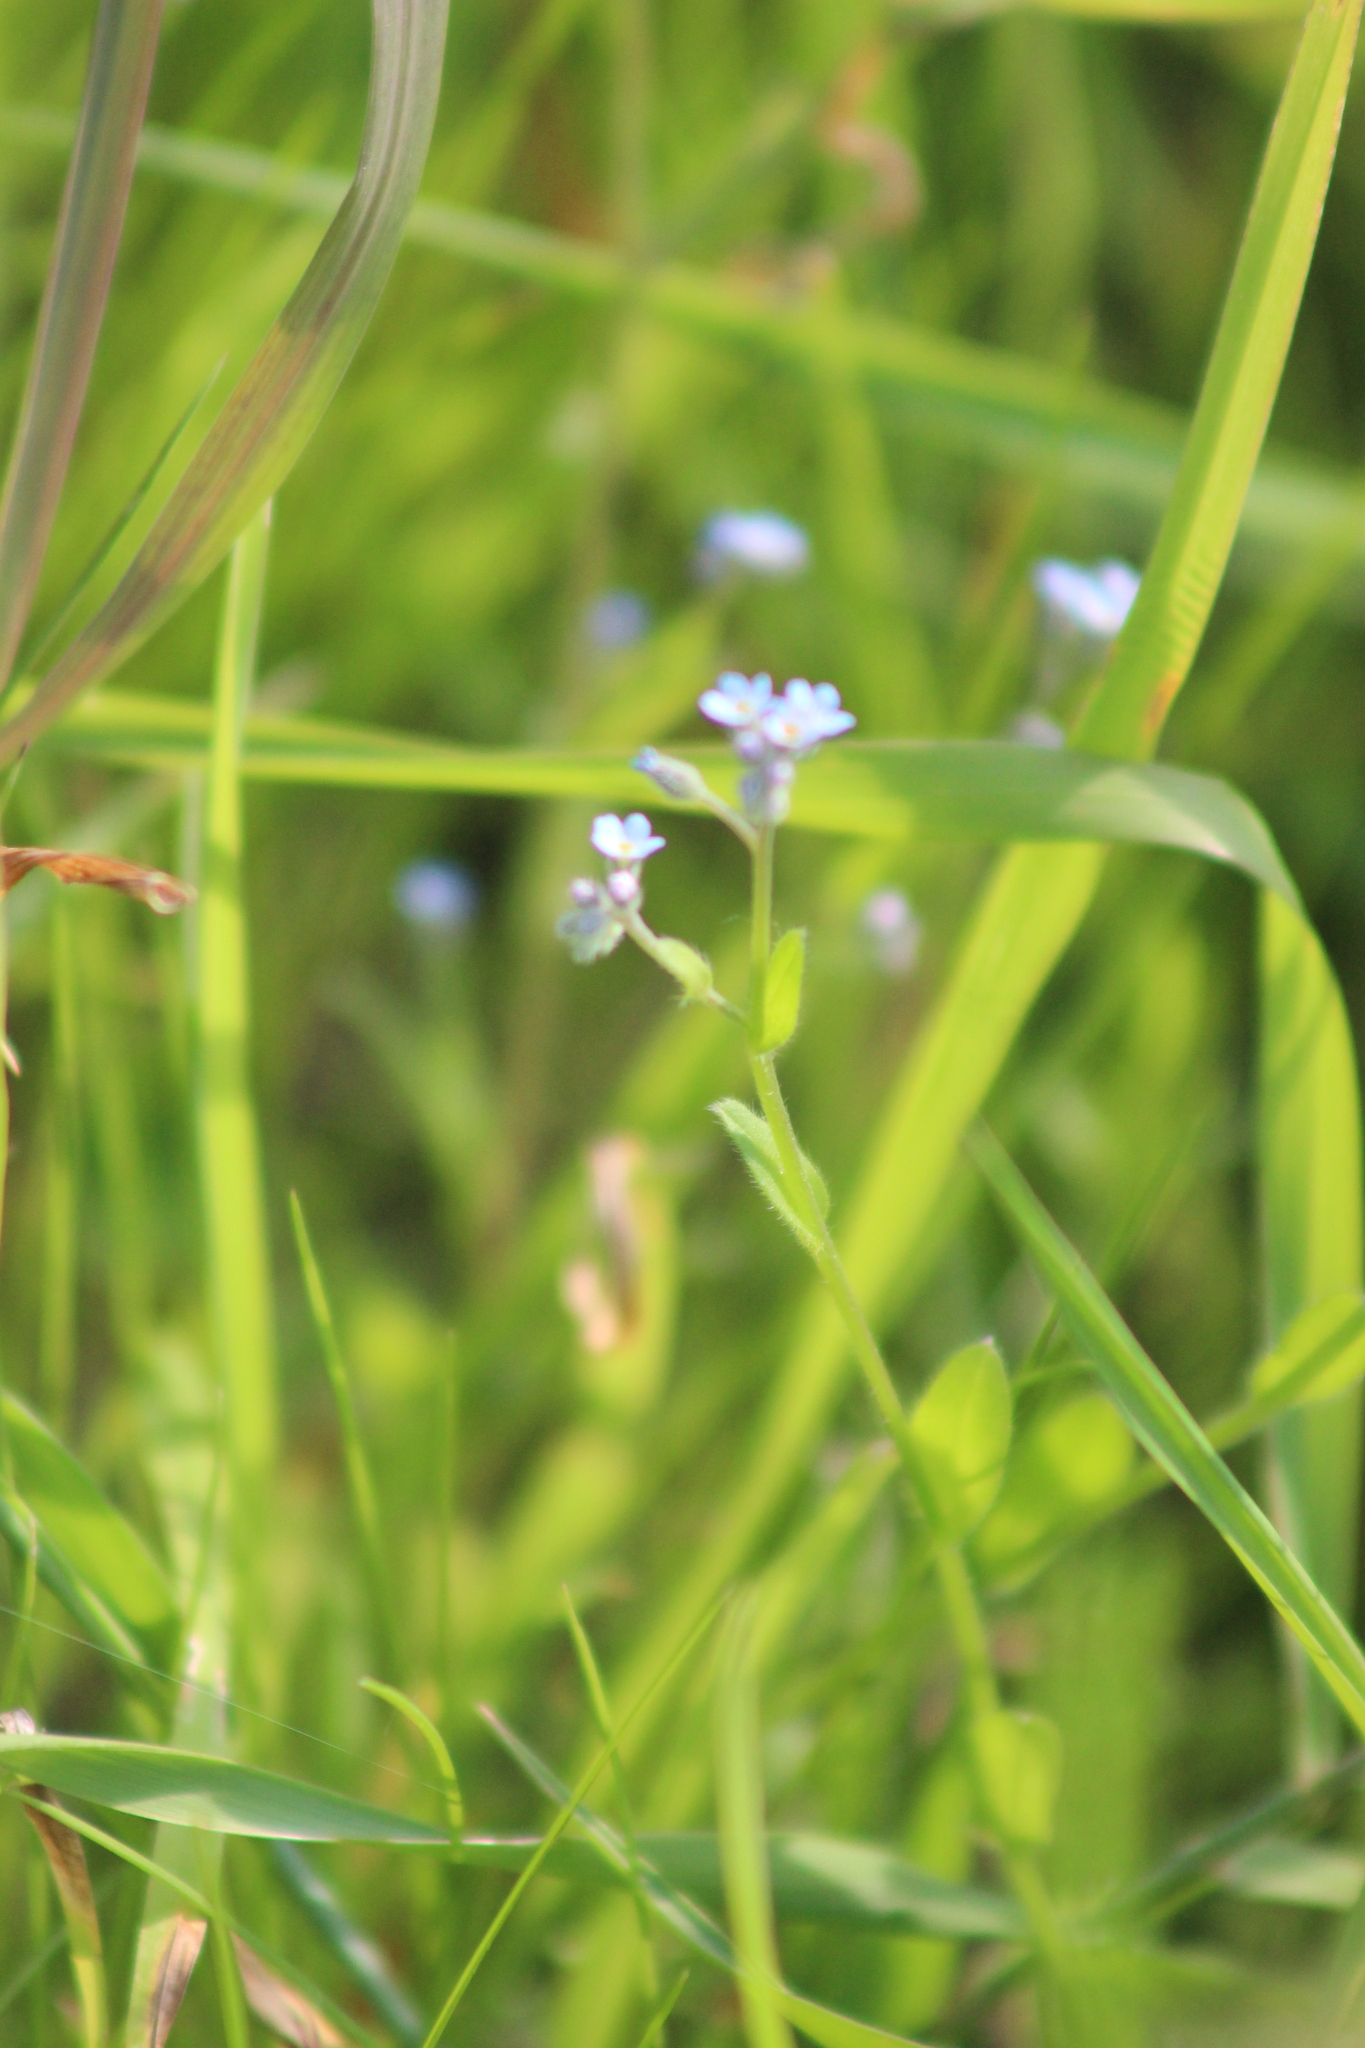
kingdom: Plantae
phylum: Tracheophyta
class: Magnoliopsida
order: Boraginales
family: Boraginaceae
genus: Myosotis
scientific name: Myosotis arvensis
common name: Field forget-me-not
